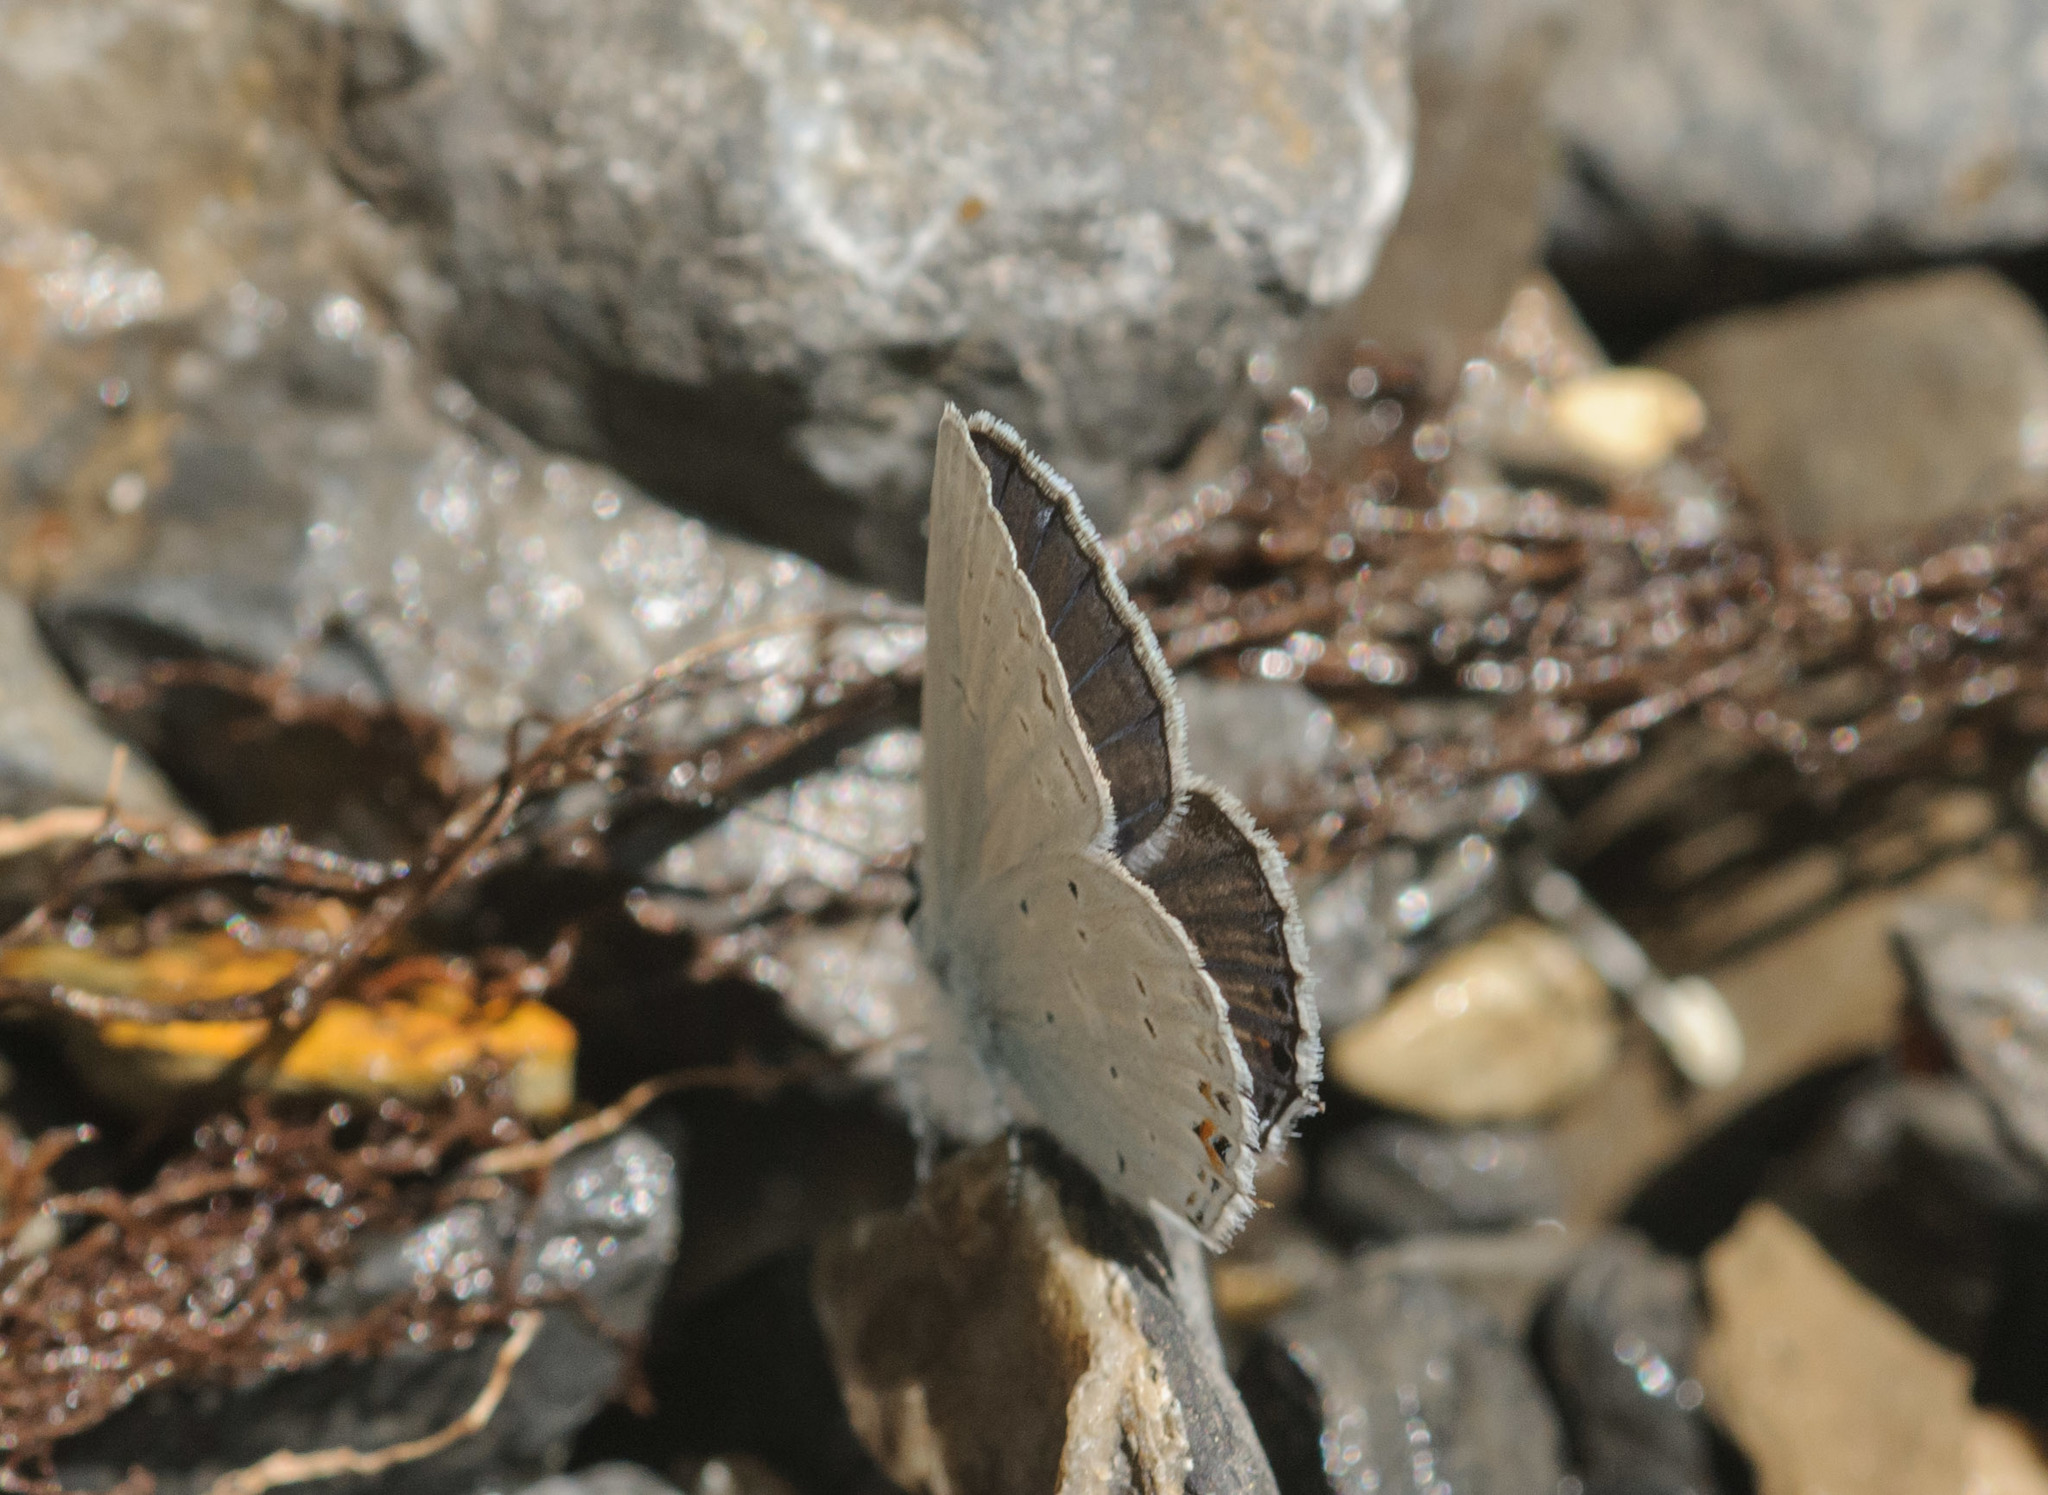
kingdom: Animalia
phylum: Arthropoda
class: Insecta
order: Lepidoptera
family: Lycaenidae
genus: Elkalyce
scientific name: Elkalyce amyntula
